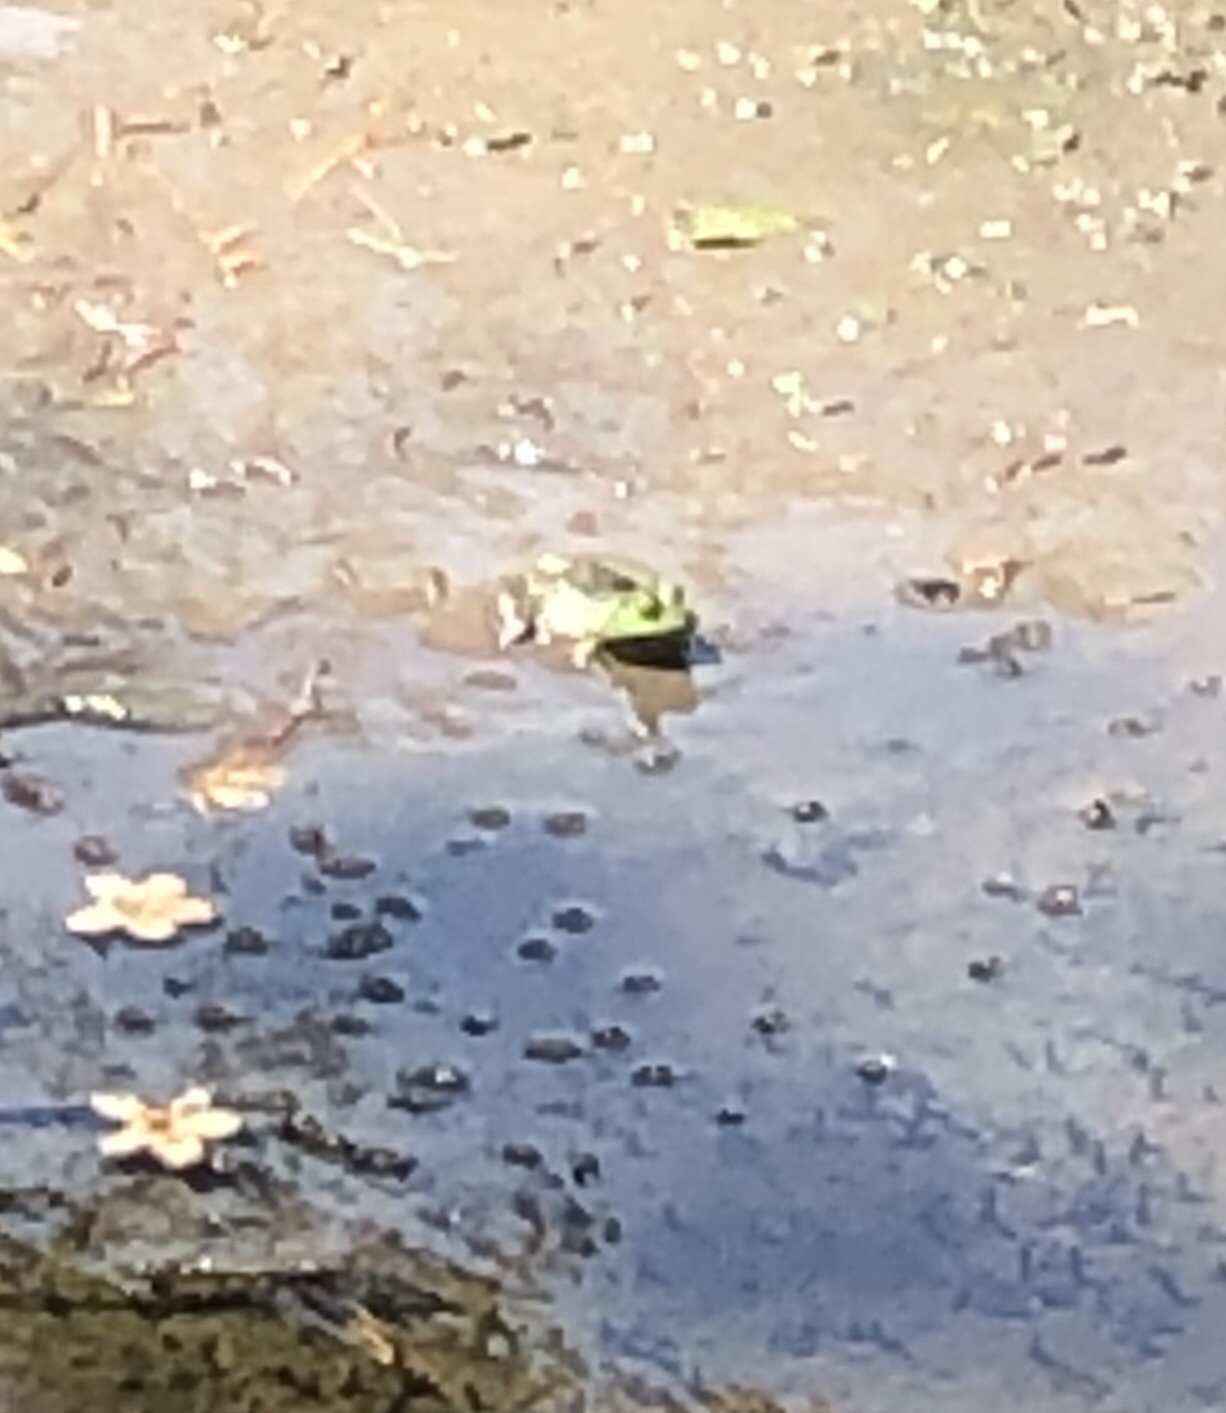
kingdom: Animalia
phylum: Chordata
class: Amphibia
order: Anura
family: Ranidae
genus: Lithobates
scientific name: Lithobates catesbeianus
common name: American bullfrog
